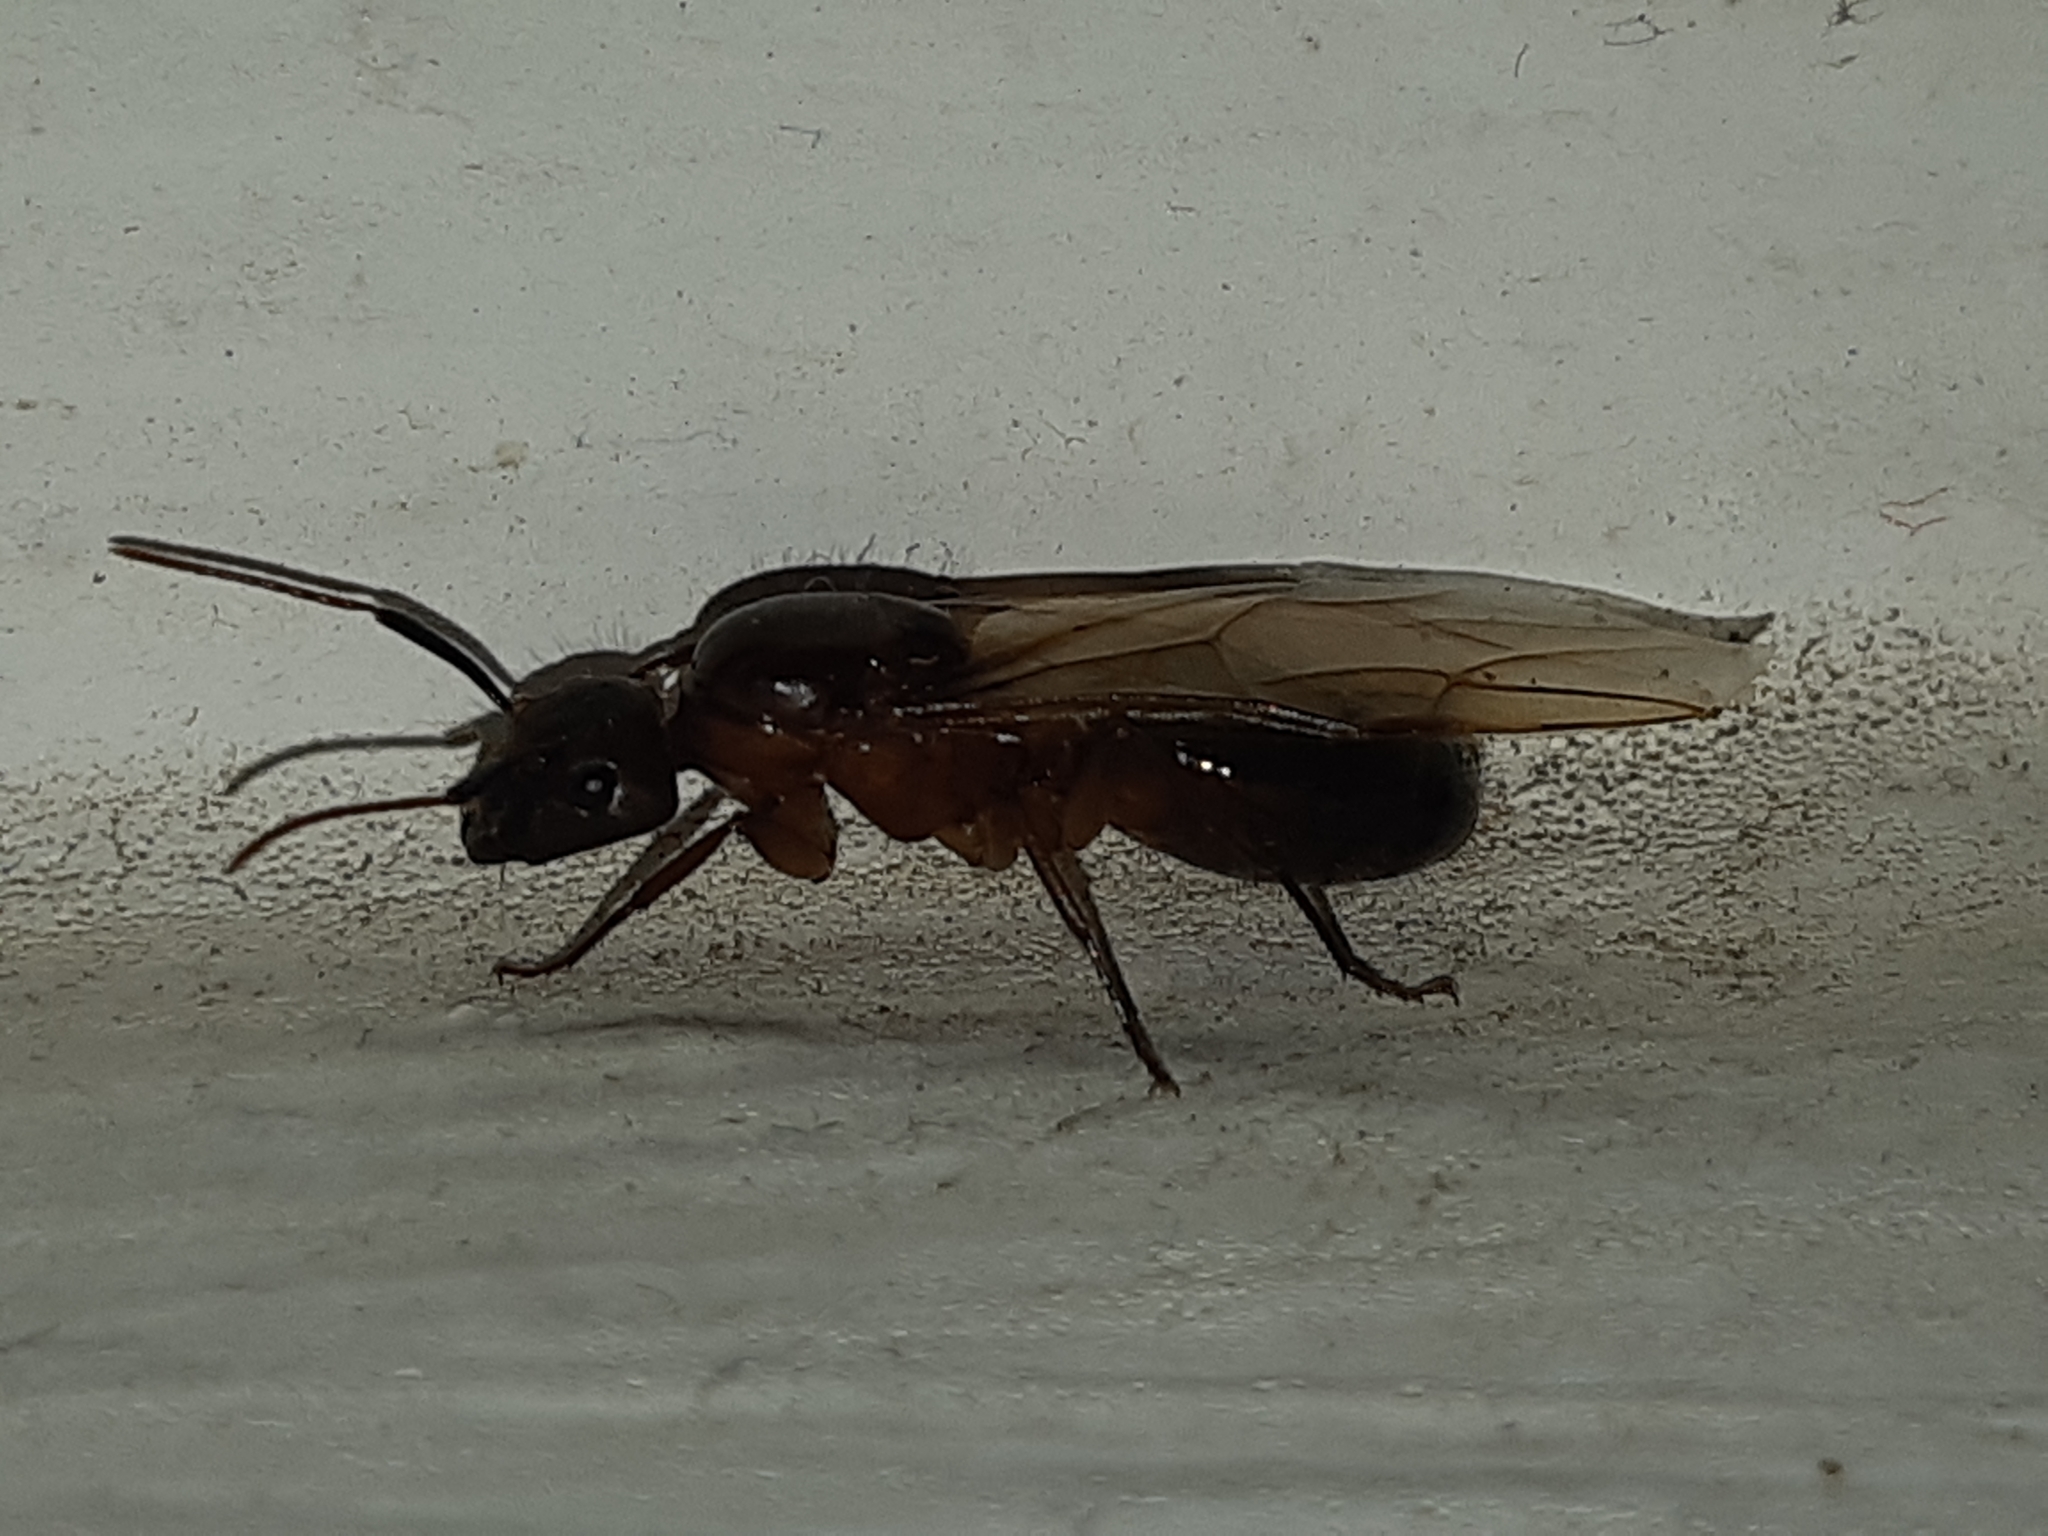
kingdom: Animalia
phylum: Arthropoda
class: Insecta
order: Hymenoptera
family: Formicidae
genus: Camponotus
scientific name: Camponotus atriceps
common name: Florida carpenter ant
